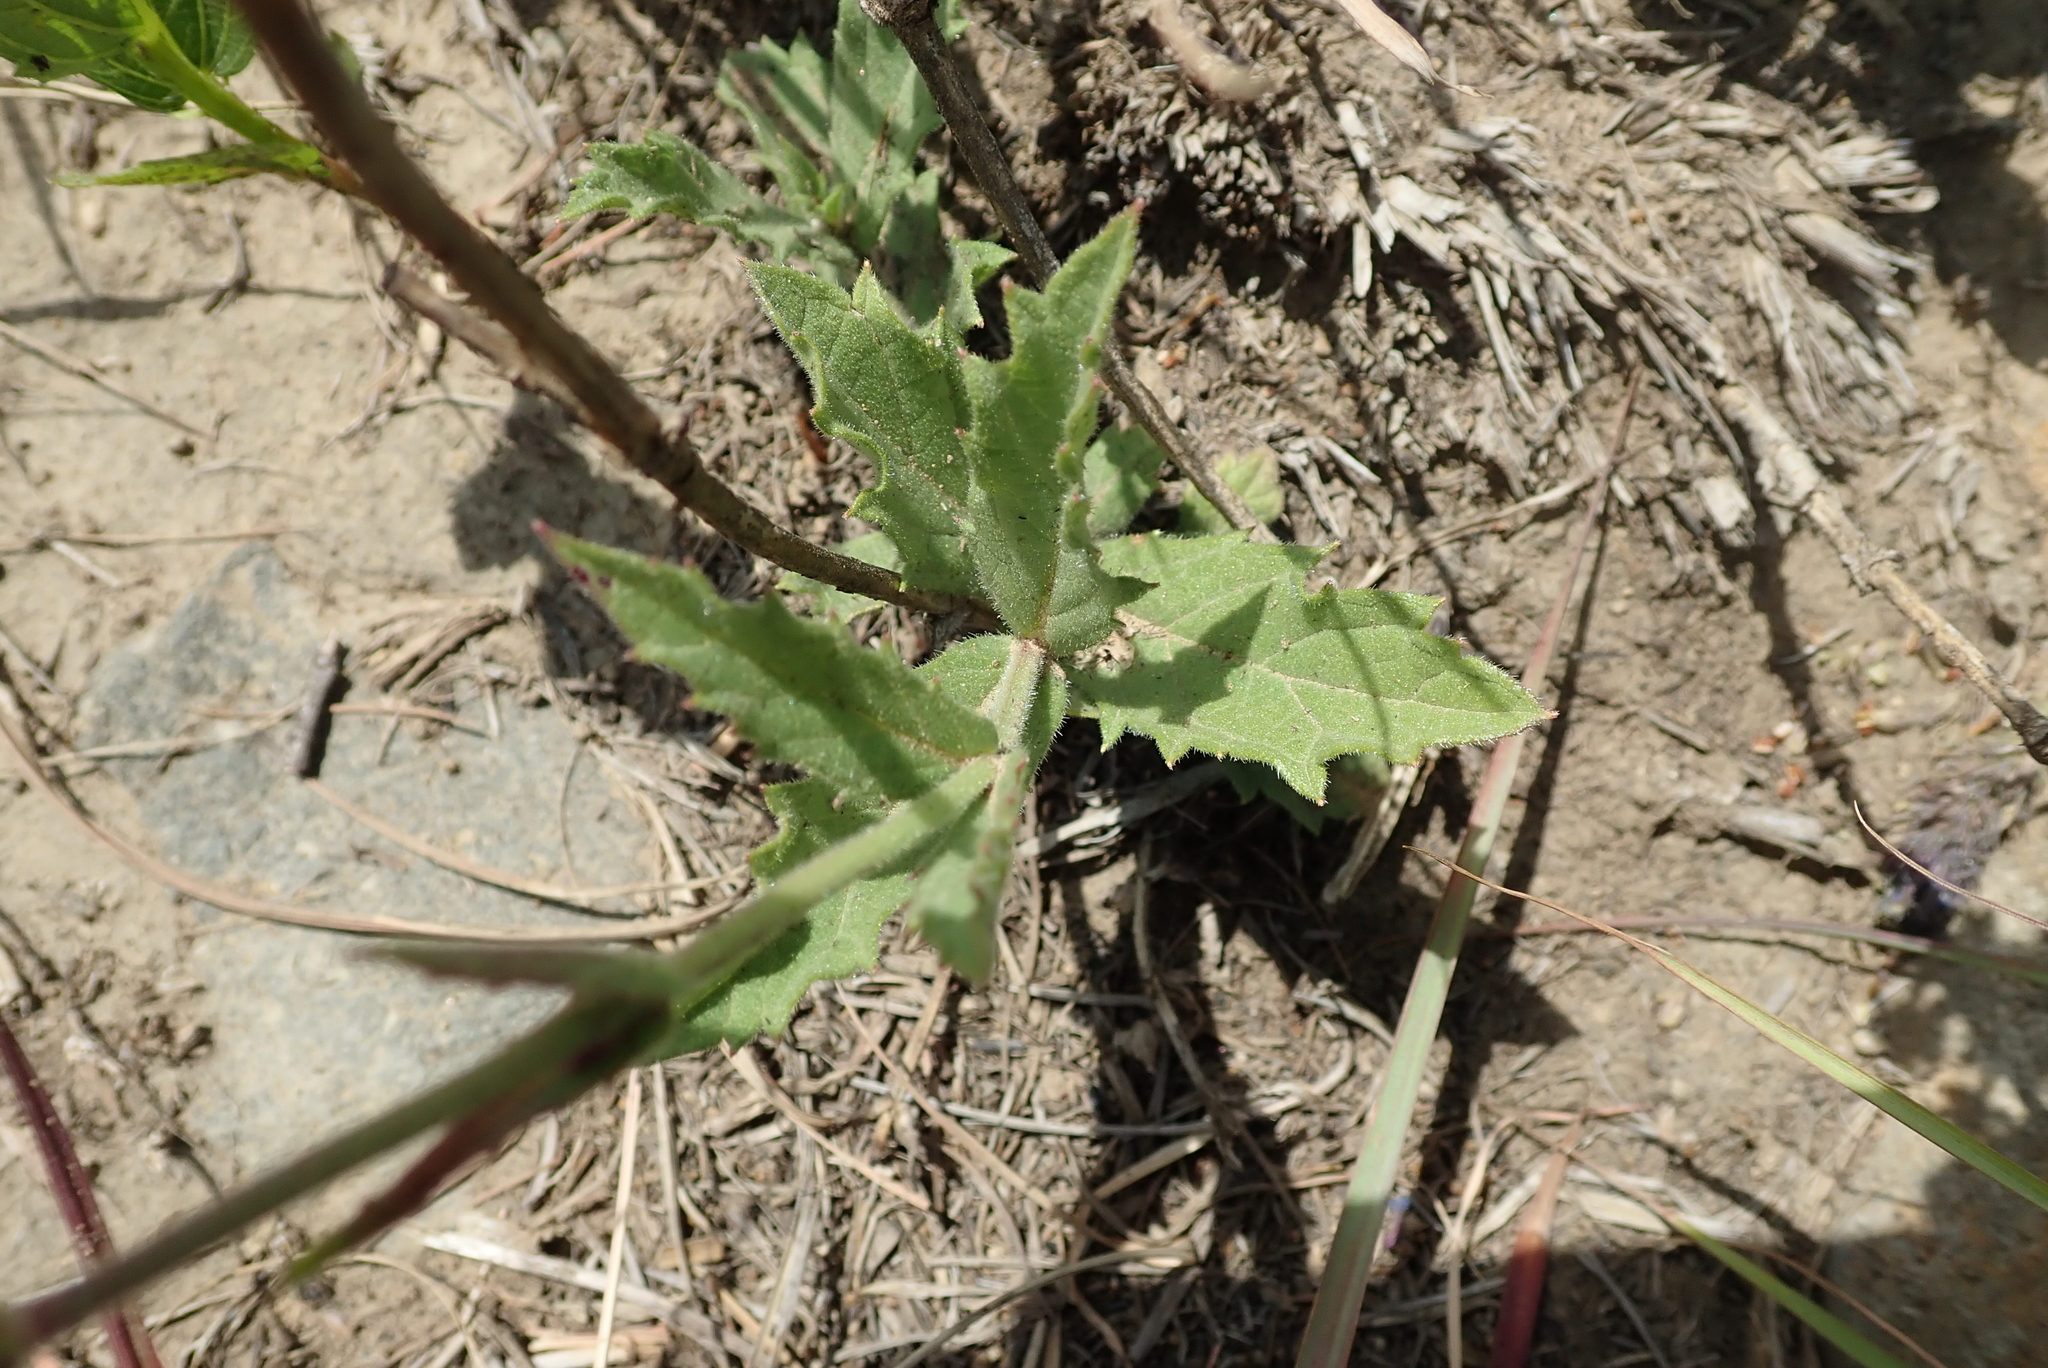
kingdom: Plantae
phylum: Tracheophyta
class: Magnoliopsida
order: Lamiales
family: Verbenaceae
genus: Verbena
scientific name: Verbena rigida
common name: Slender vervain
